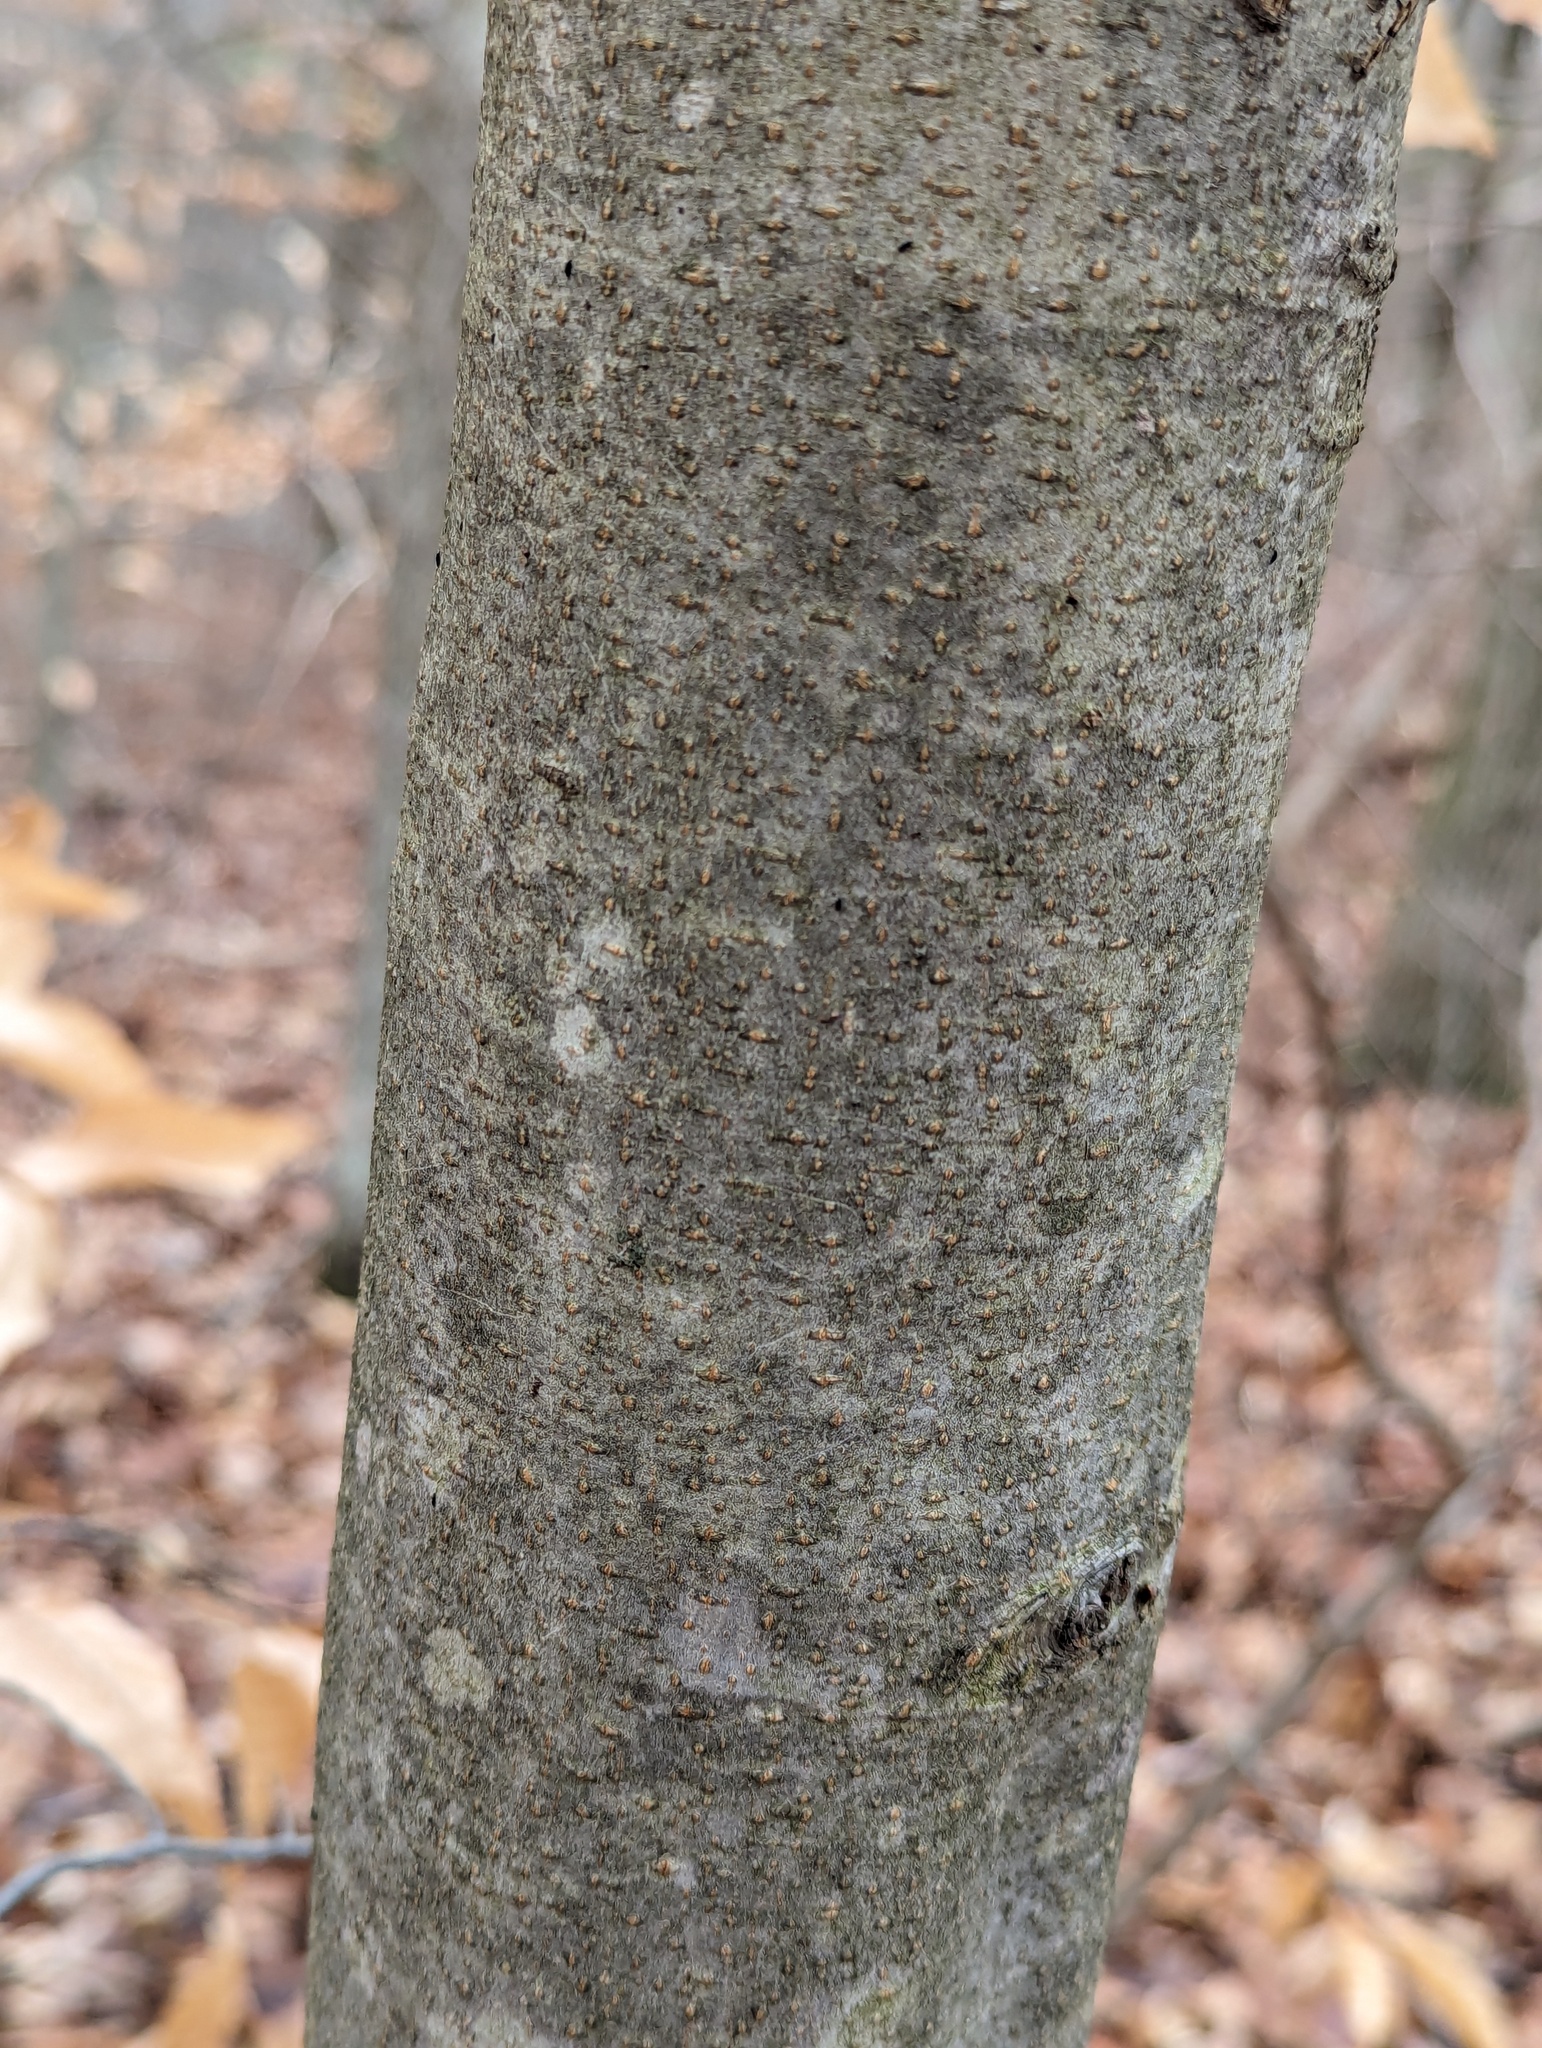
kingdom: Plantae
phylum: Tracheophyta
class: Magnoliopsida
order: Fagales
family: Fagaceae
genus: Fagus
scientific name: Fagus grandifolia
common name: American beech
